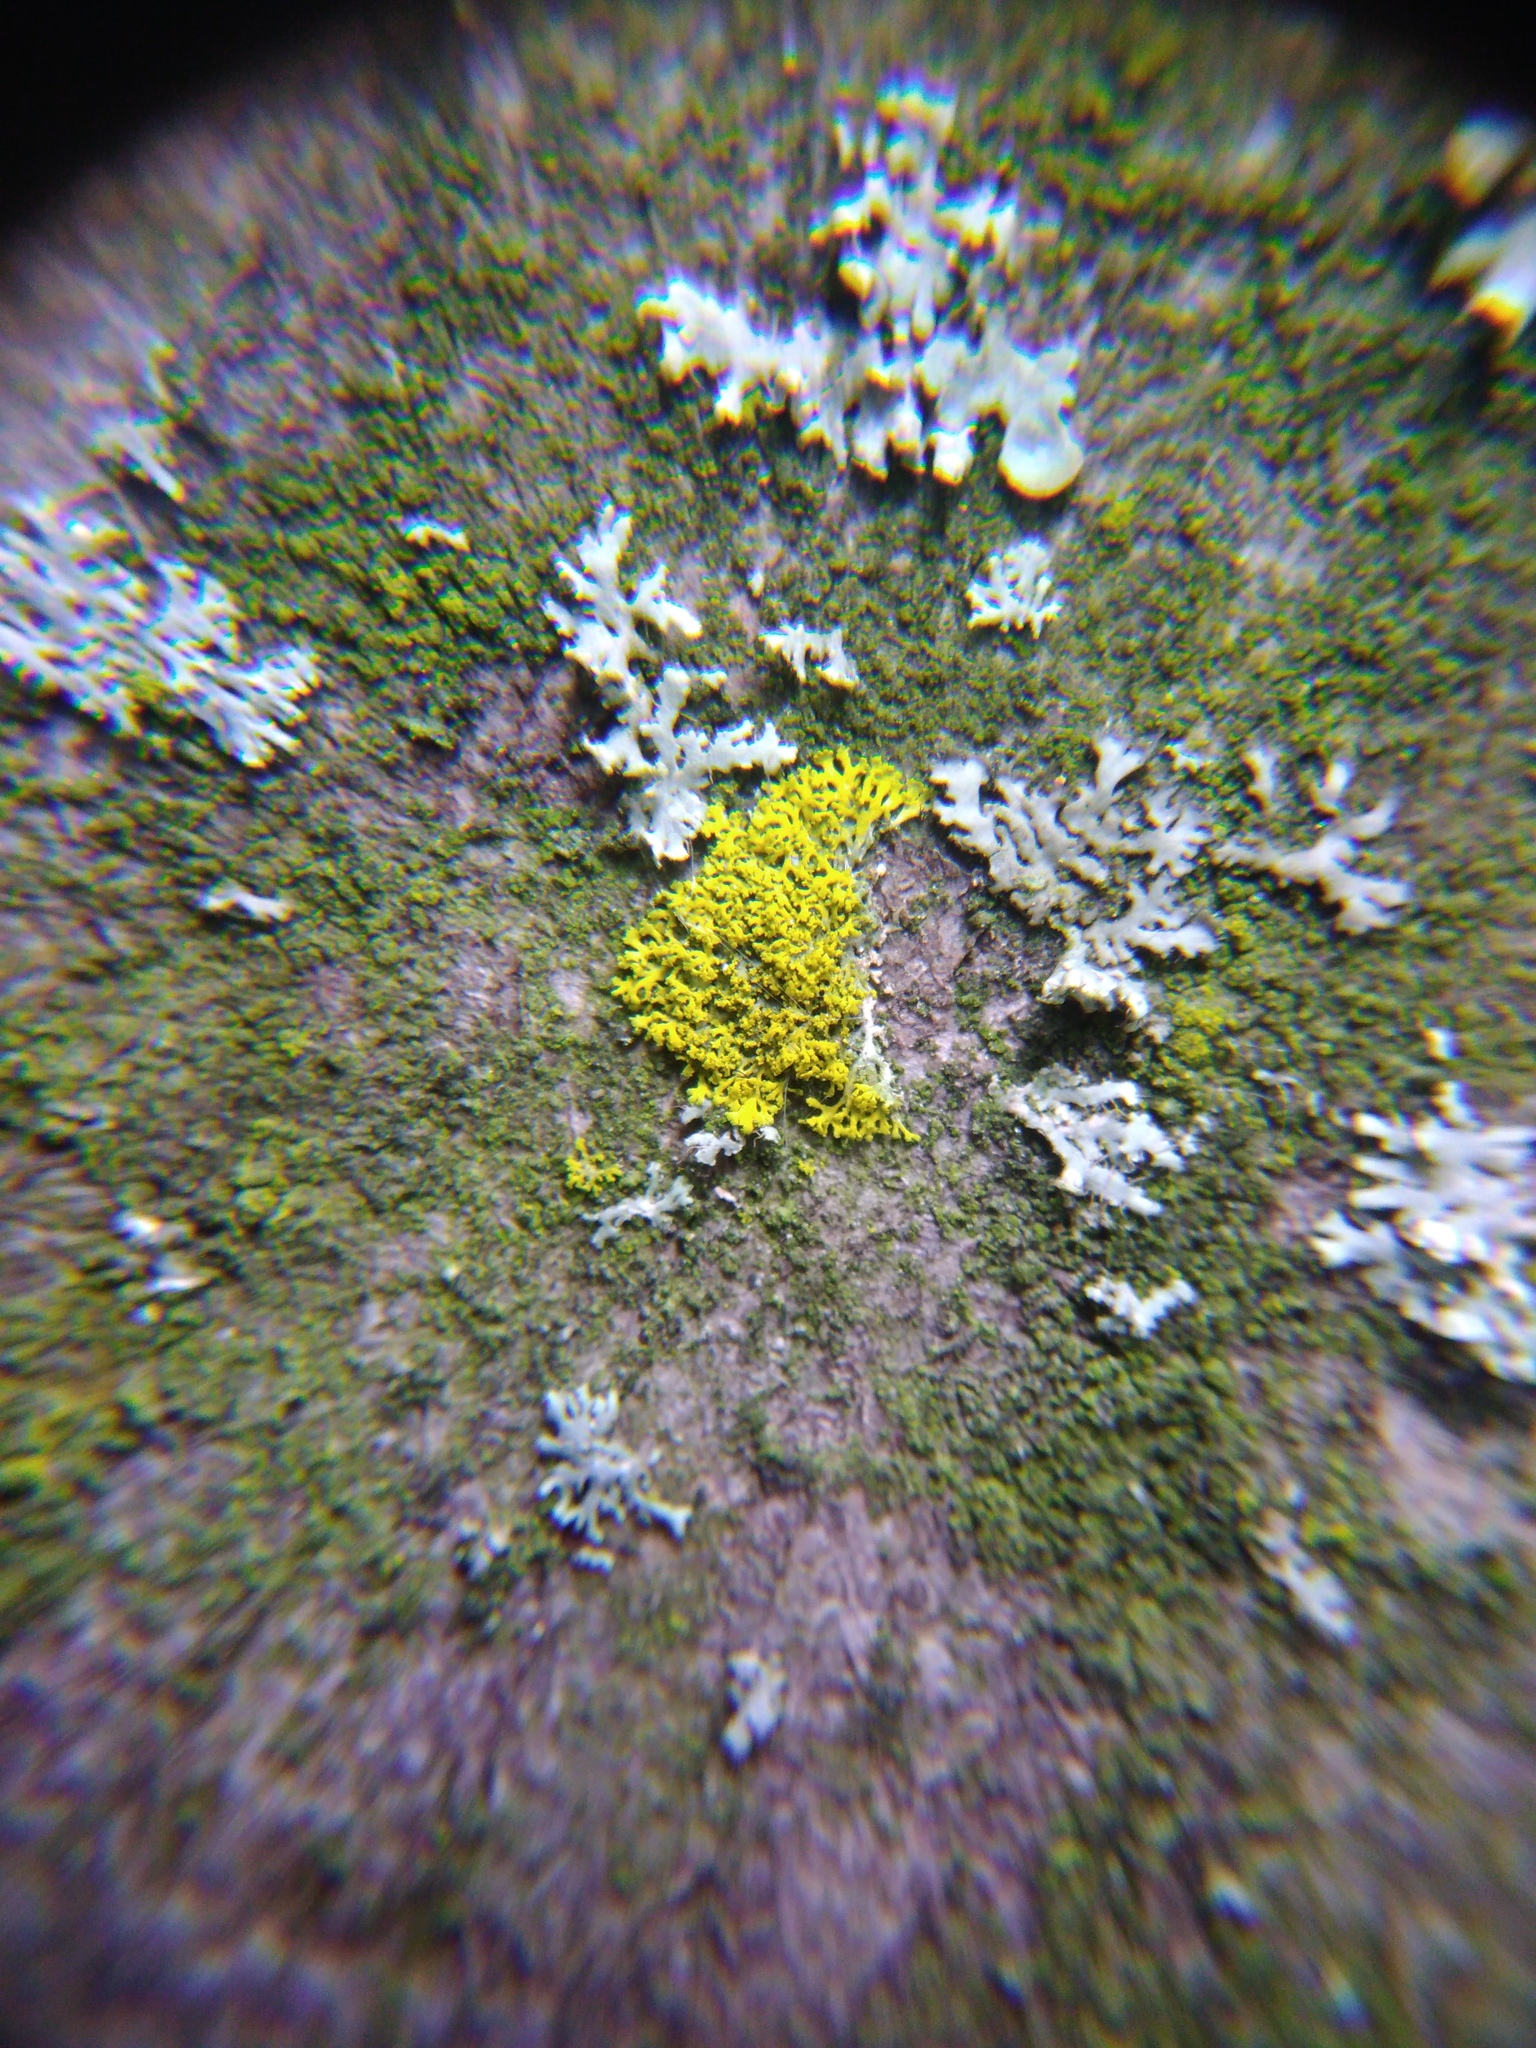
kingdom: Fungi
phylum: Ascomycota
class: Candelariomycetes
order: Candelariales
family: Candelariaceae
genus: Candelaria
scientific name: Candelaria concolor
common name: Candleflame lichen
